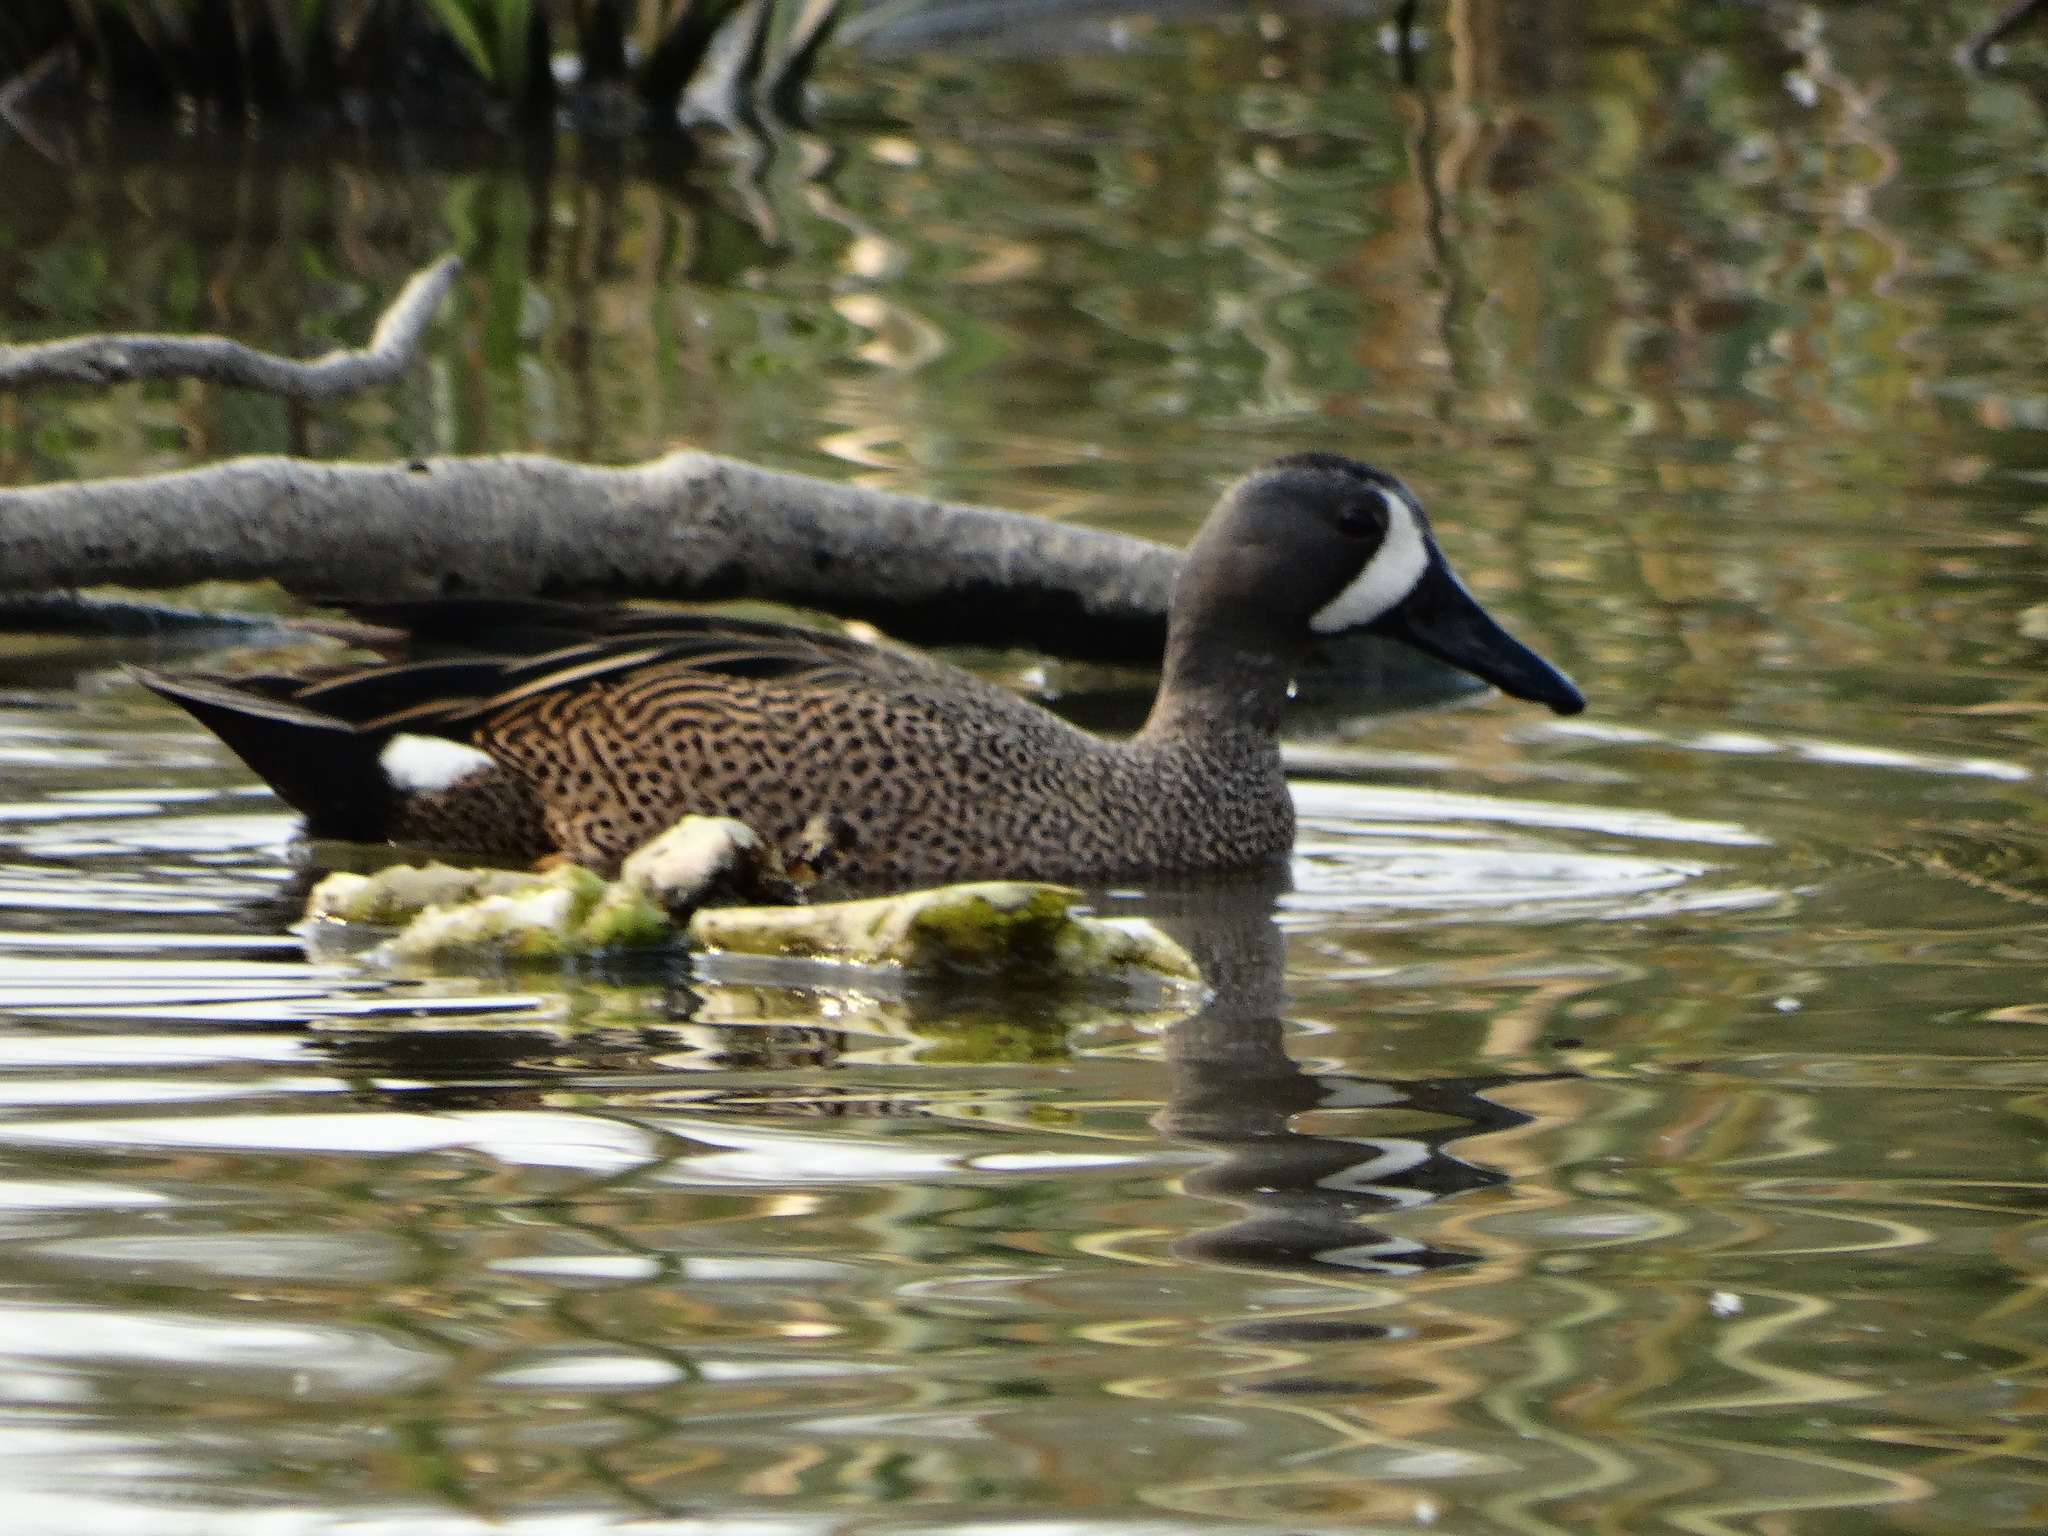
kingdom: Animalia
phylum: Chordata
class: Aves
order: Anseriformes
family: Anatidae
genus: Spatula
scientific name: Spatula discors
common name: Blue-winged teal
